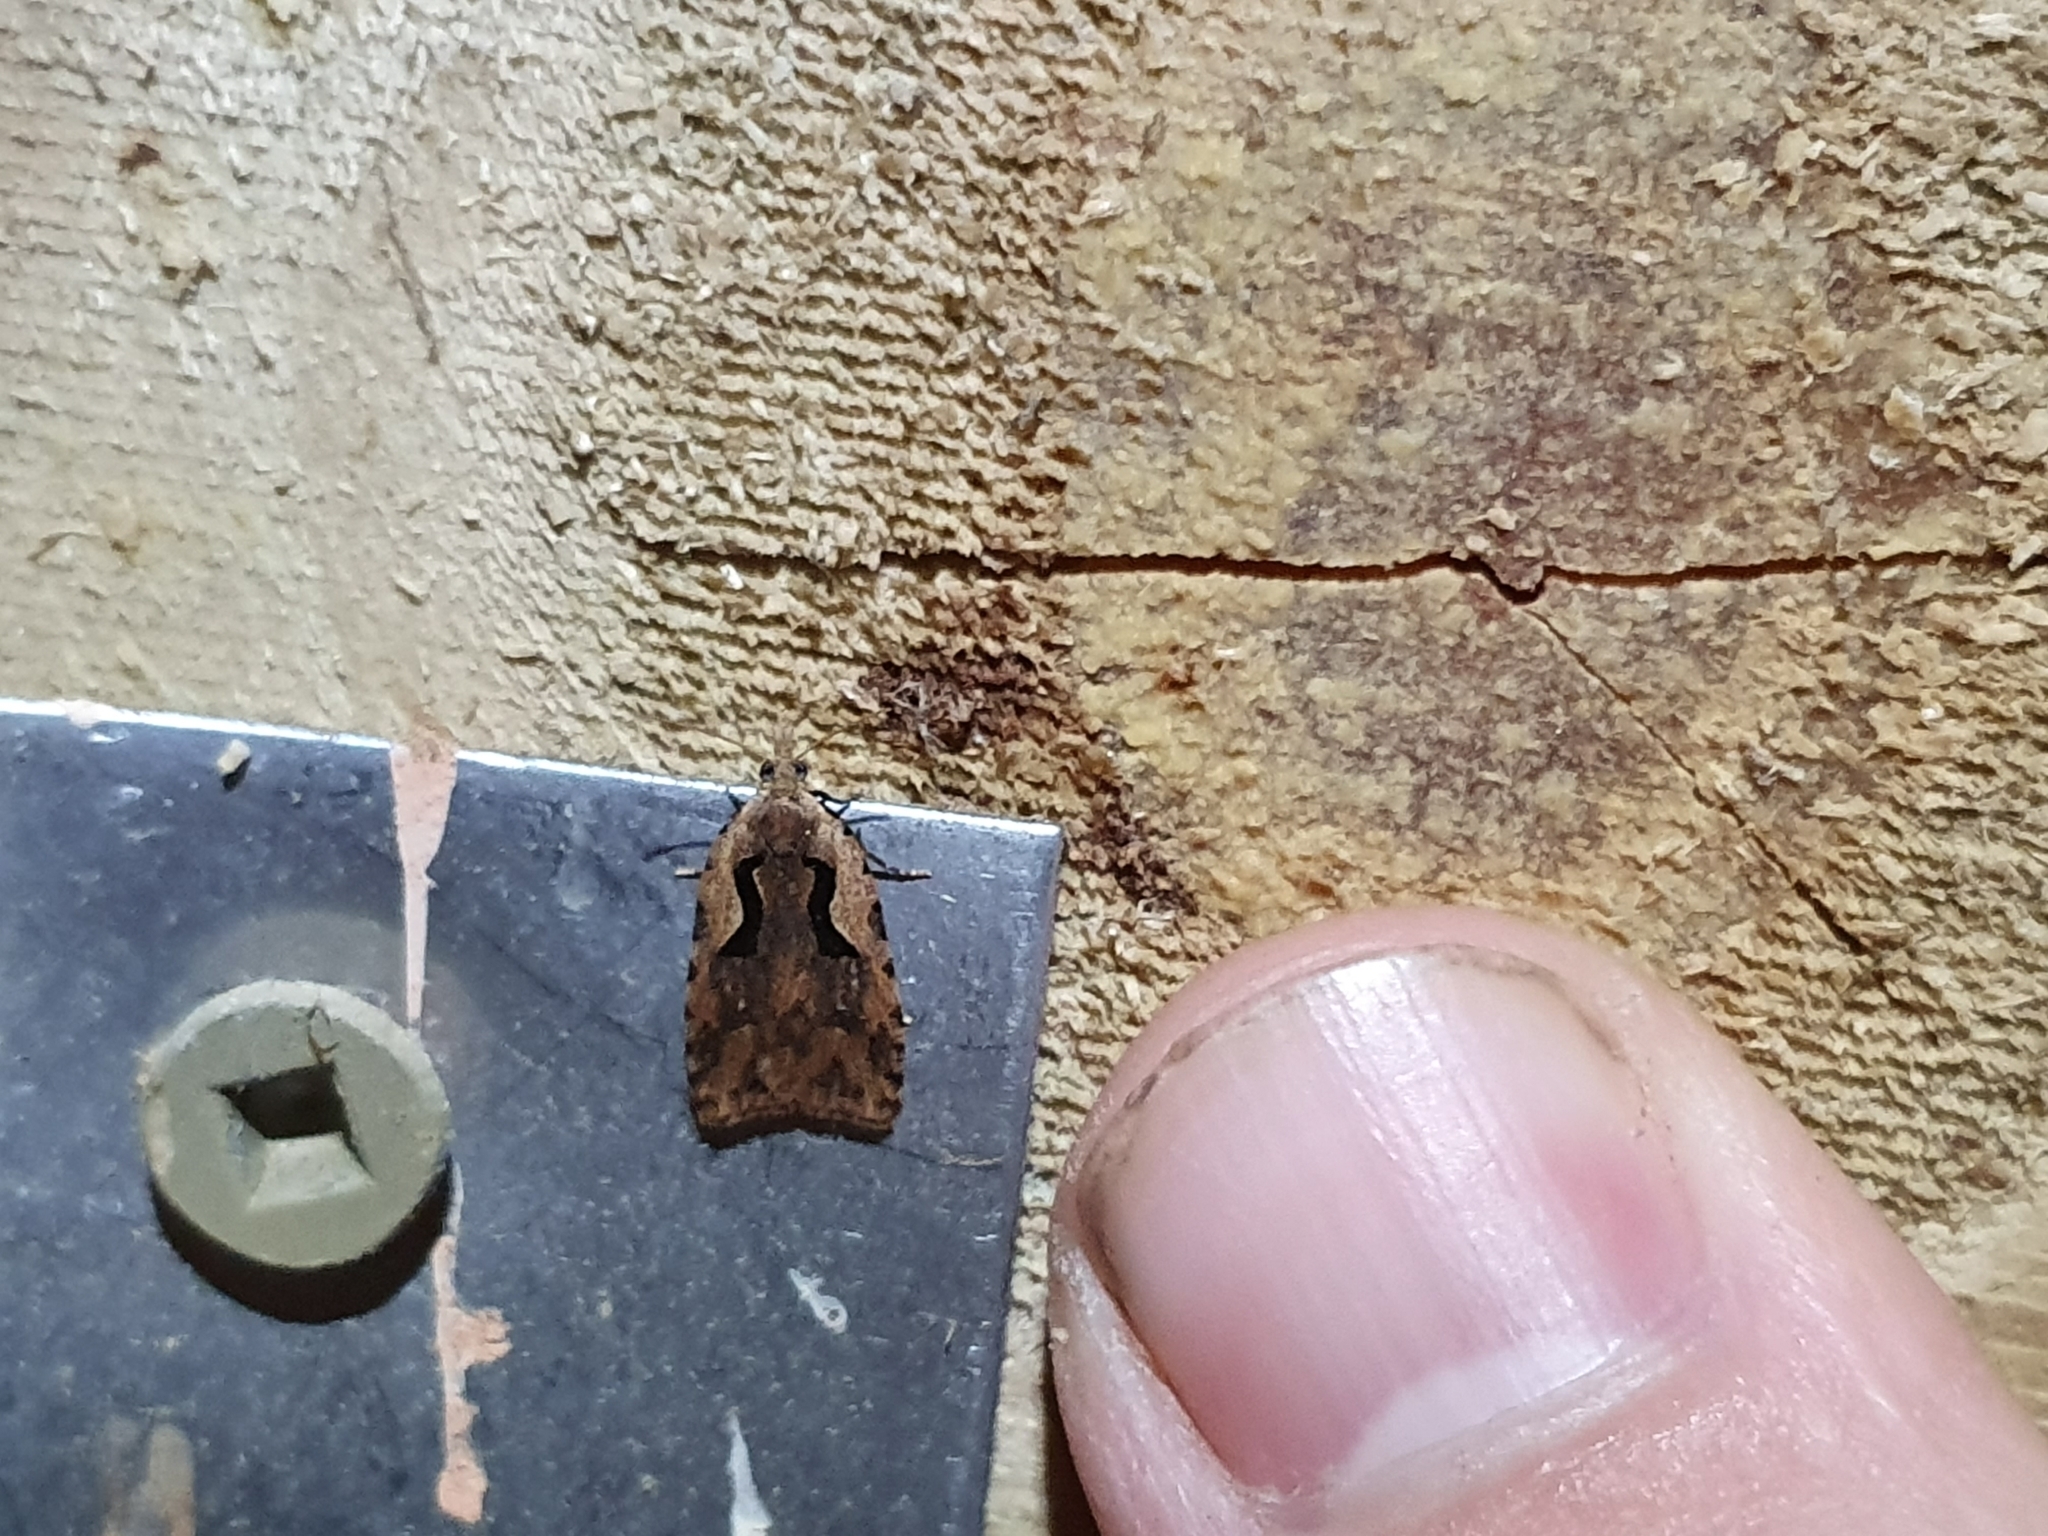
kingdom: Animalia
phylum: Arthropoda
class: Insecta
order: Lepidoptera
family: Tortricidae
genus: Cnephasia
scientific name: Cnephasia jactatana
